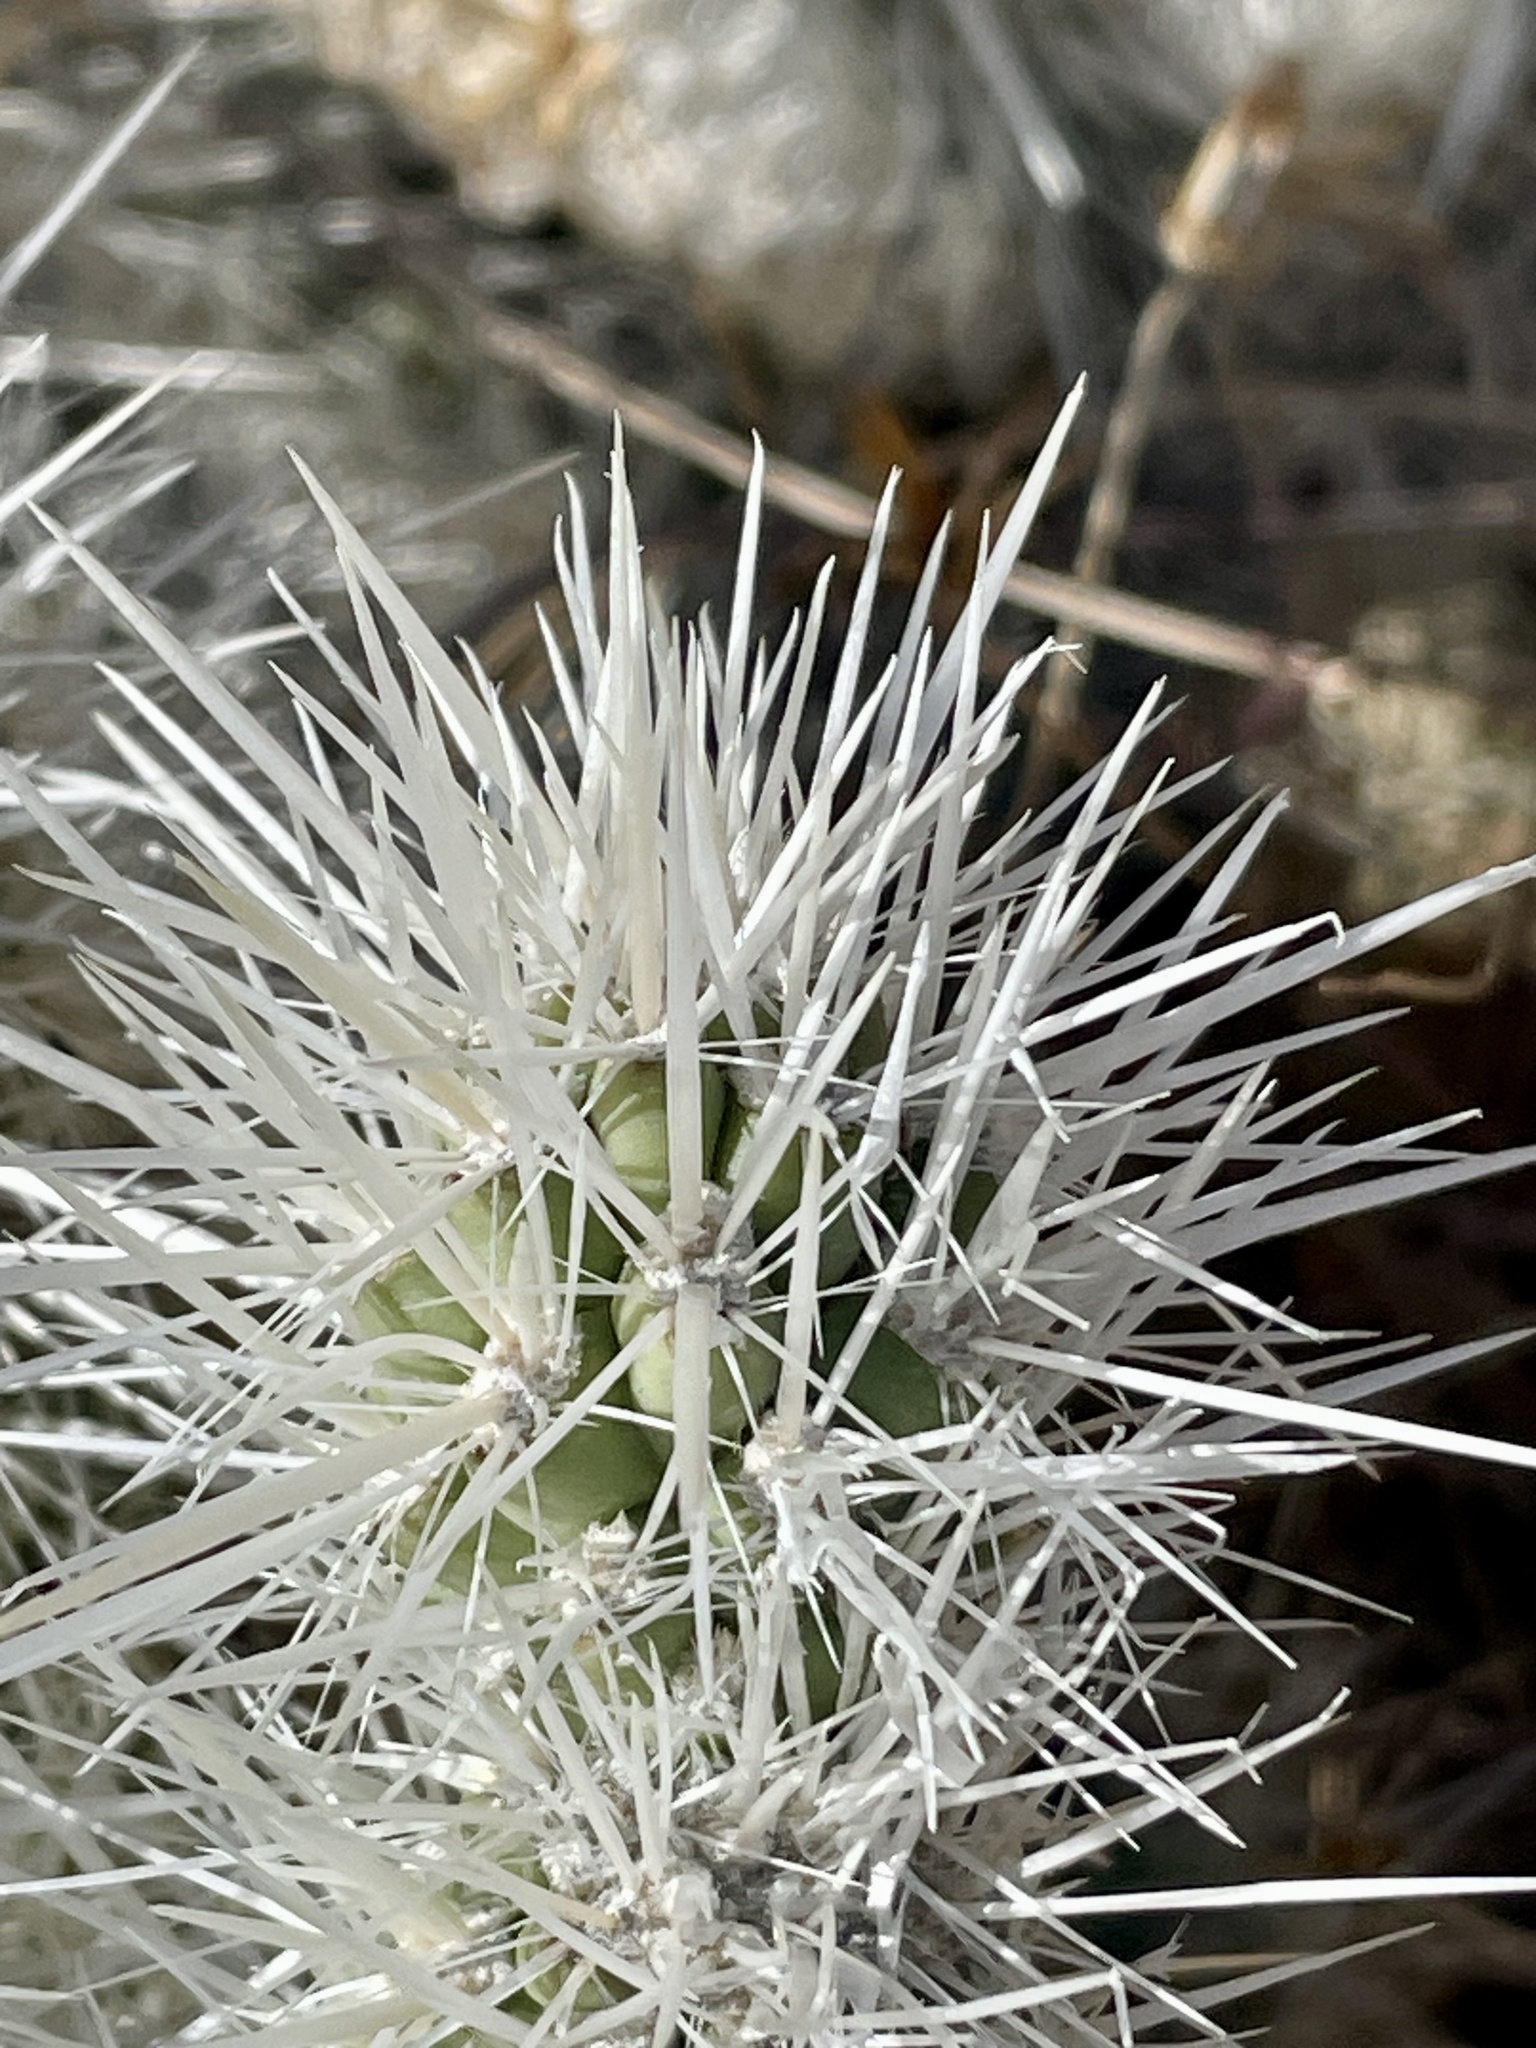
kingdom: Plantae
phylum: Tracheophyta
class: Magnoliopsida
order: Caryophyllales
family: Cactaceae
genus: Cylindropuntia
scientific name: Cylindropuntia chuckwallensis
